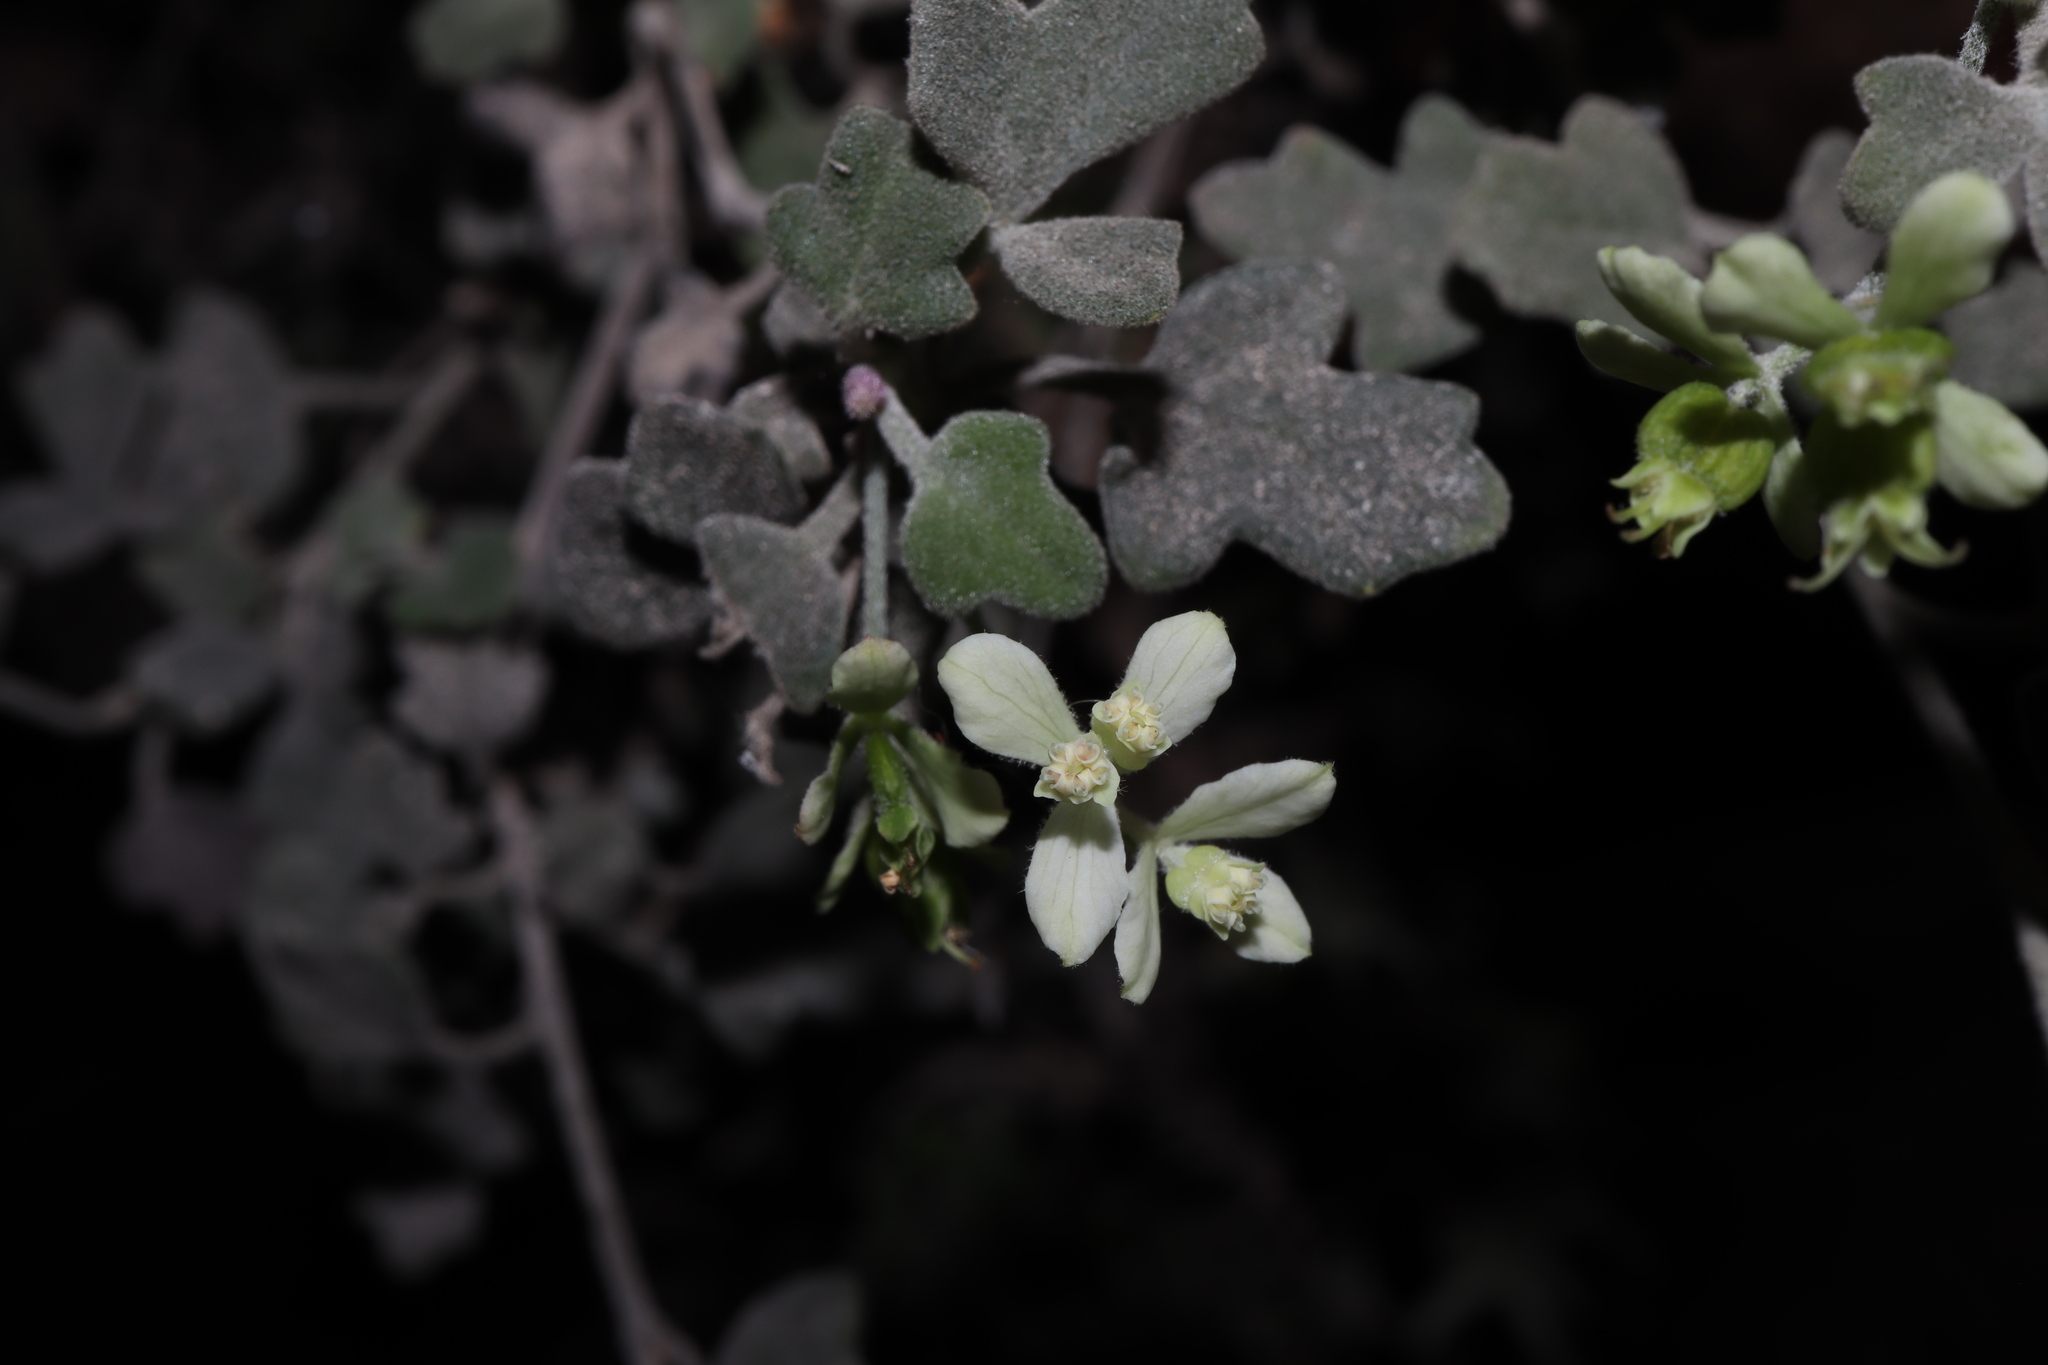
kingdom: Plantae
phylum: Tracheophyta
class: Magnoliopsida
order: Apiales
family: Apiaceae
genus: Xanthosia
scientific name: Xanthosia scopulicola
